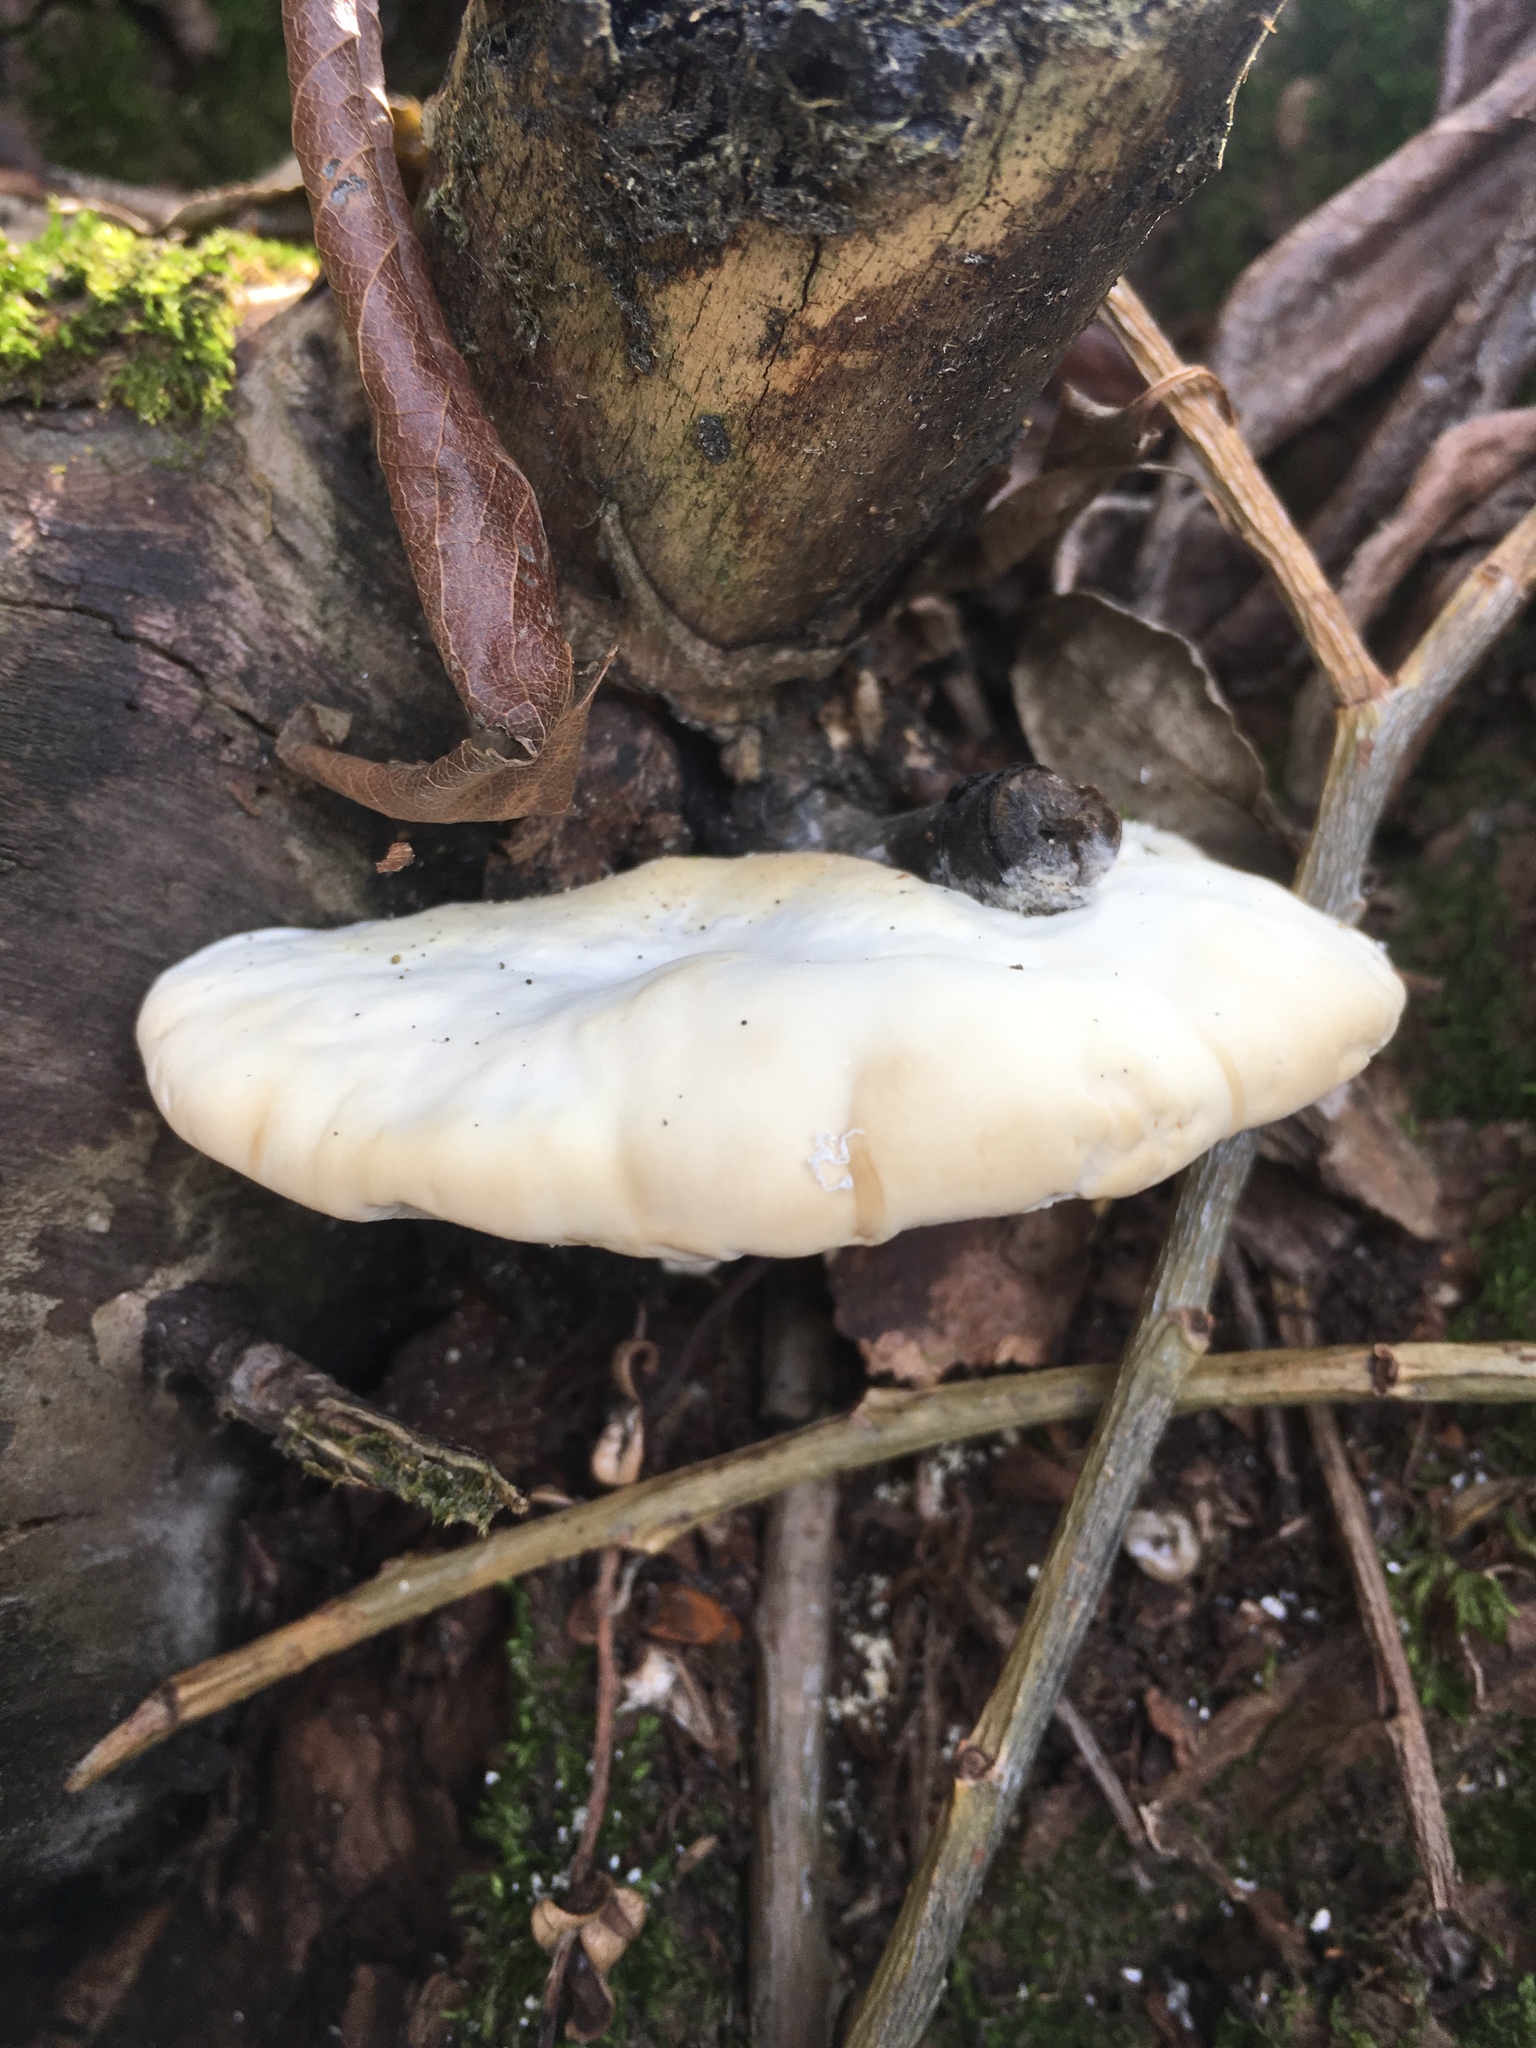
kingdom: Fungi
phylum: Basidiomycota
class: Agaricomycetes
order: Polyporales
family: Polyporaceae
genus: Trametes
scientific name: Trametes suaveolens
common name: Fragrant bracket
